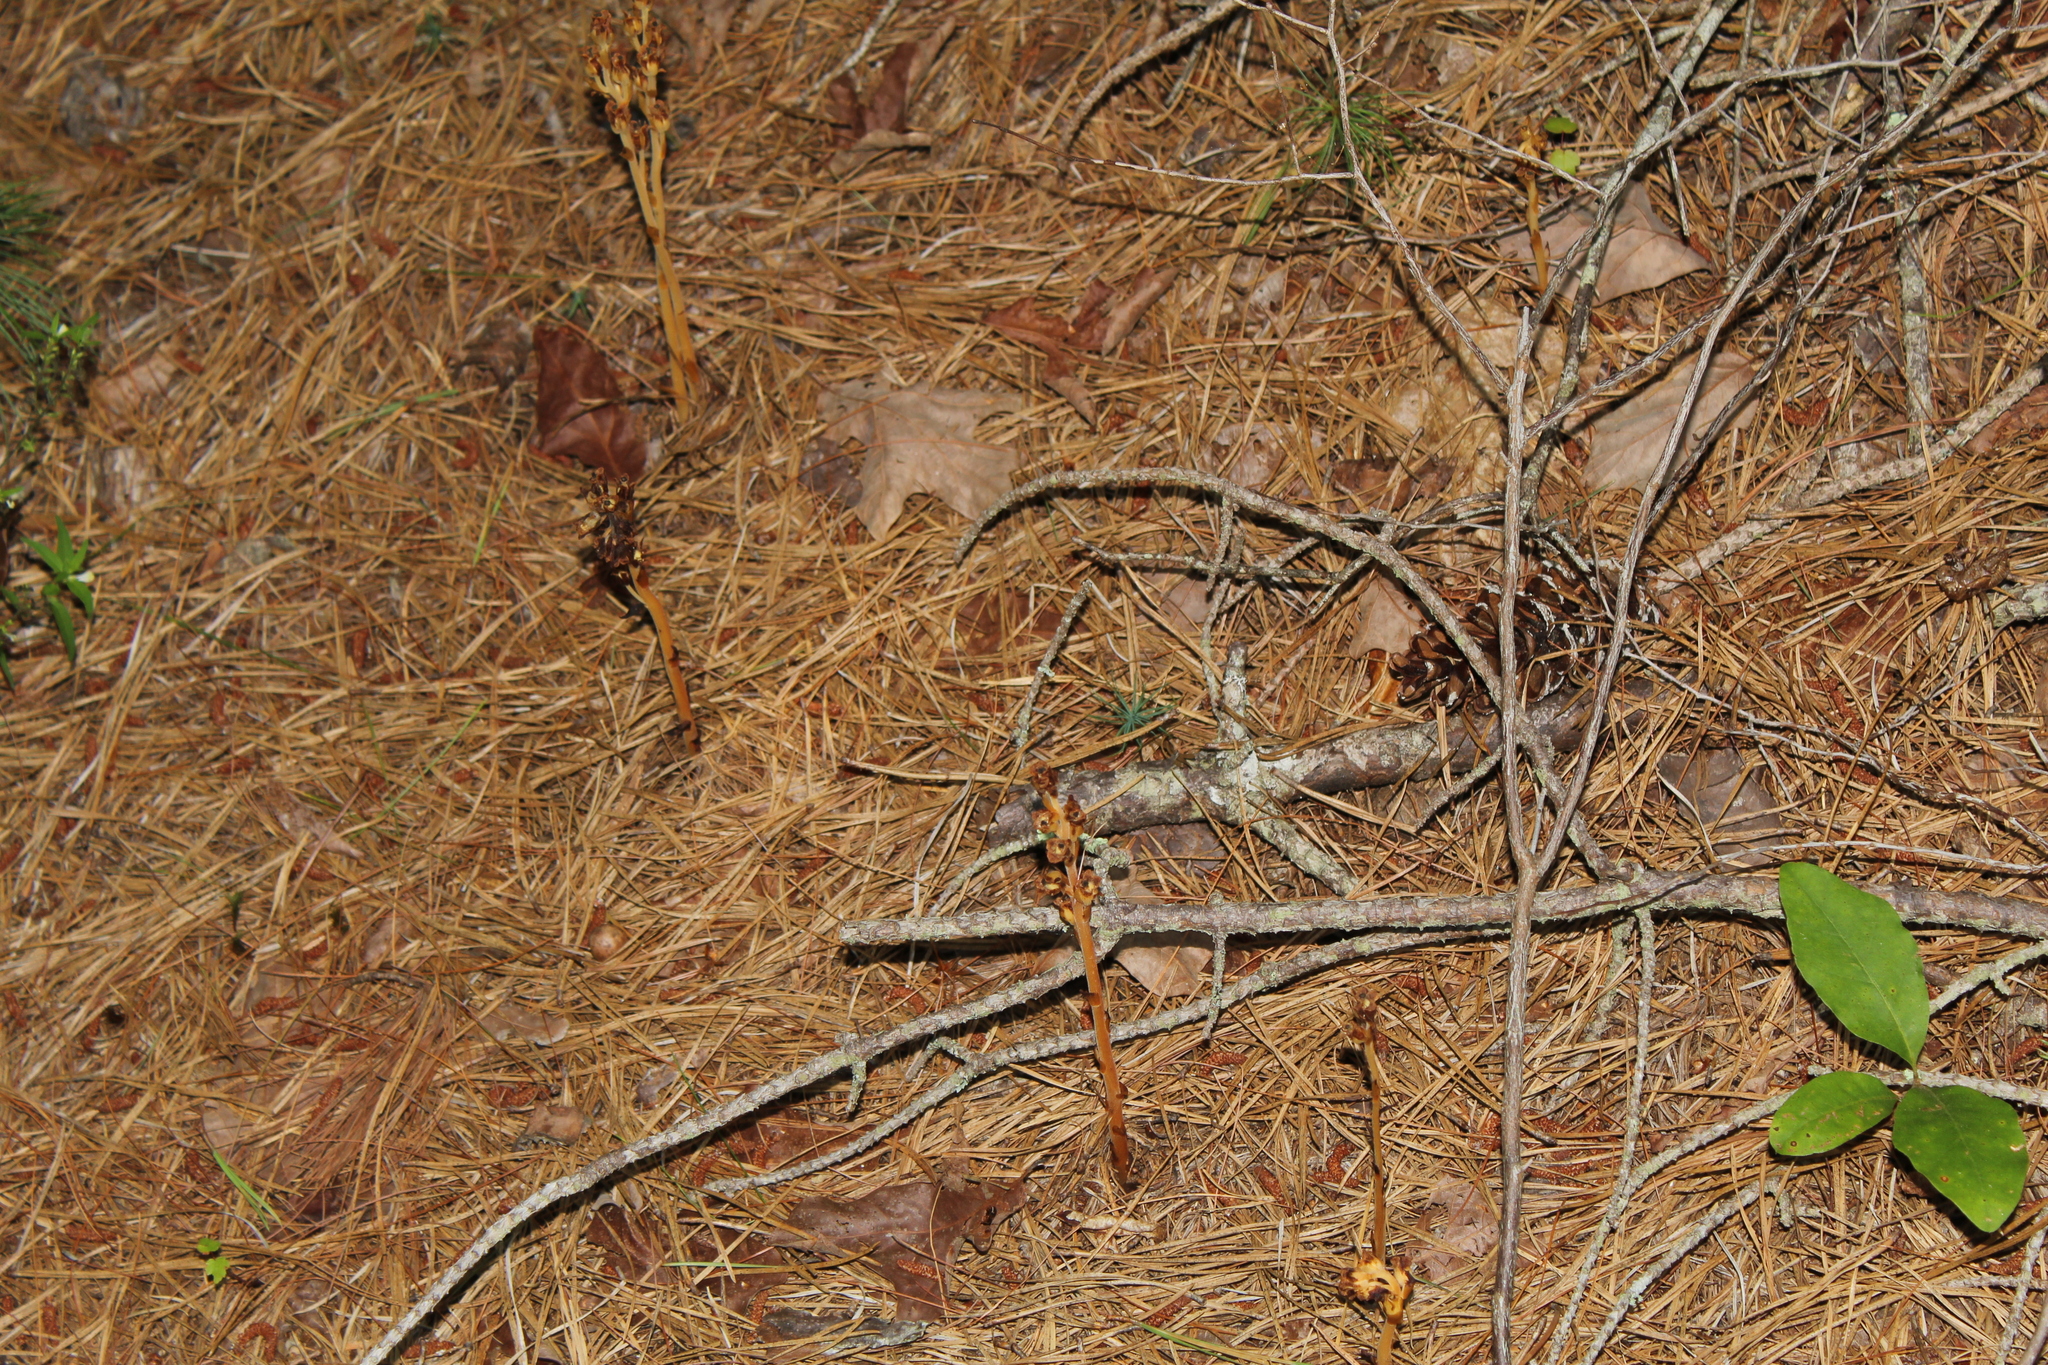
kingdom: Plantae
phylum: Tracheophyta
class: Magnoliopsida
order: Ericales
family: Ericaceae
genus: Hypopitys
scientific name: Hypopitys monotropa
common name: Yellow bird's-nest
